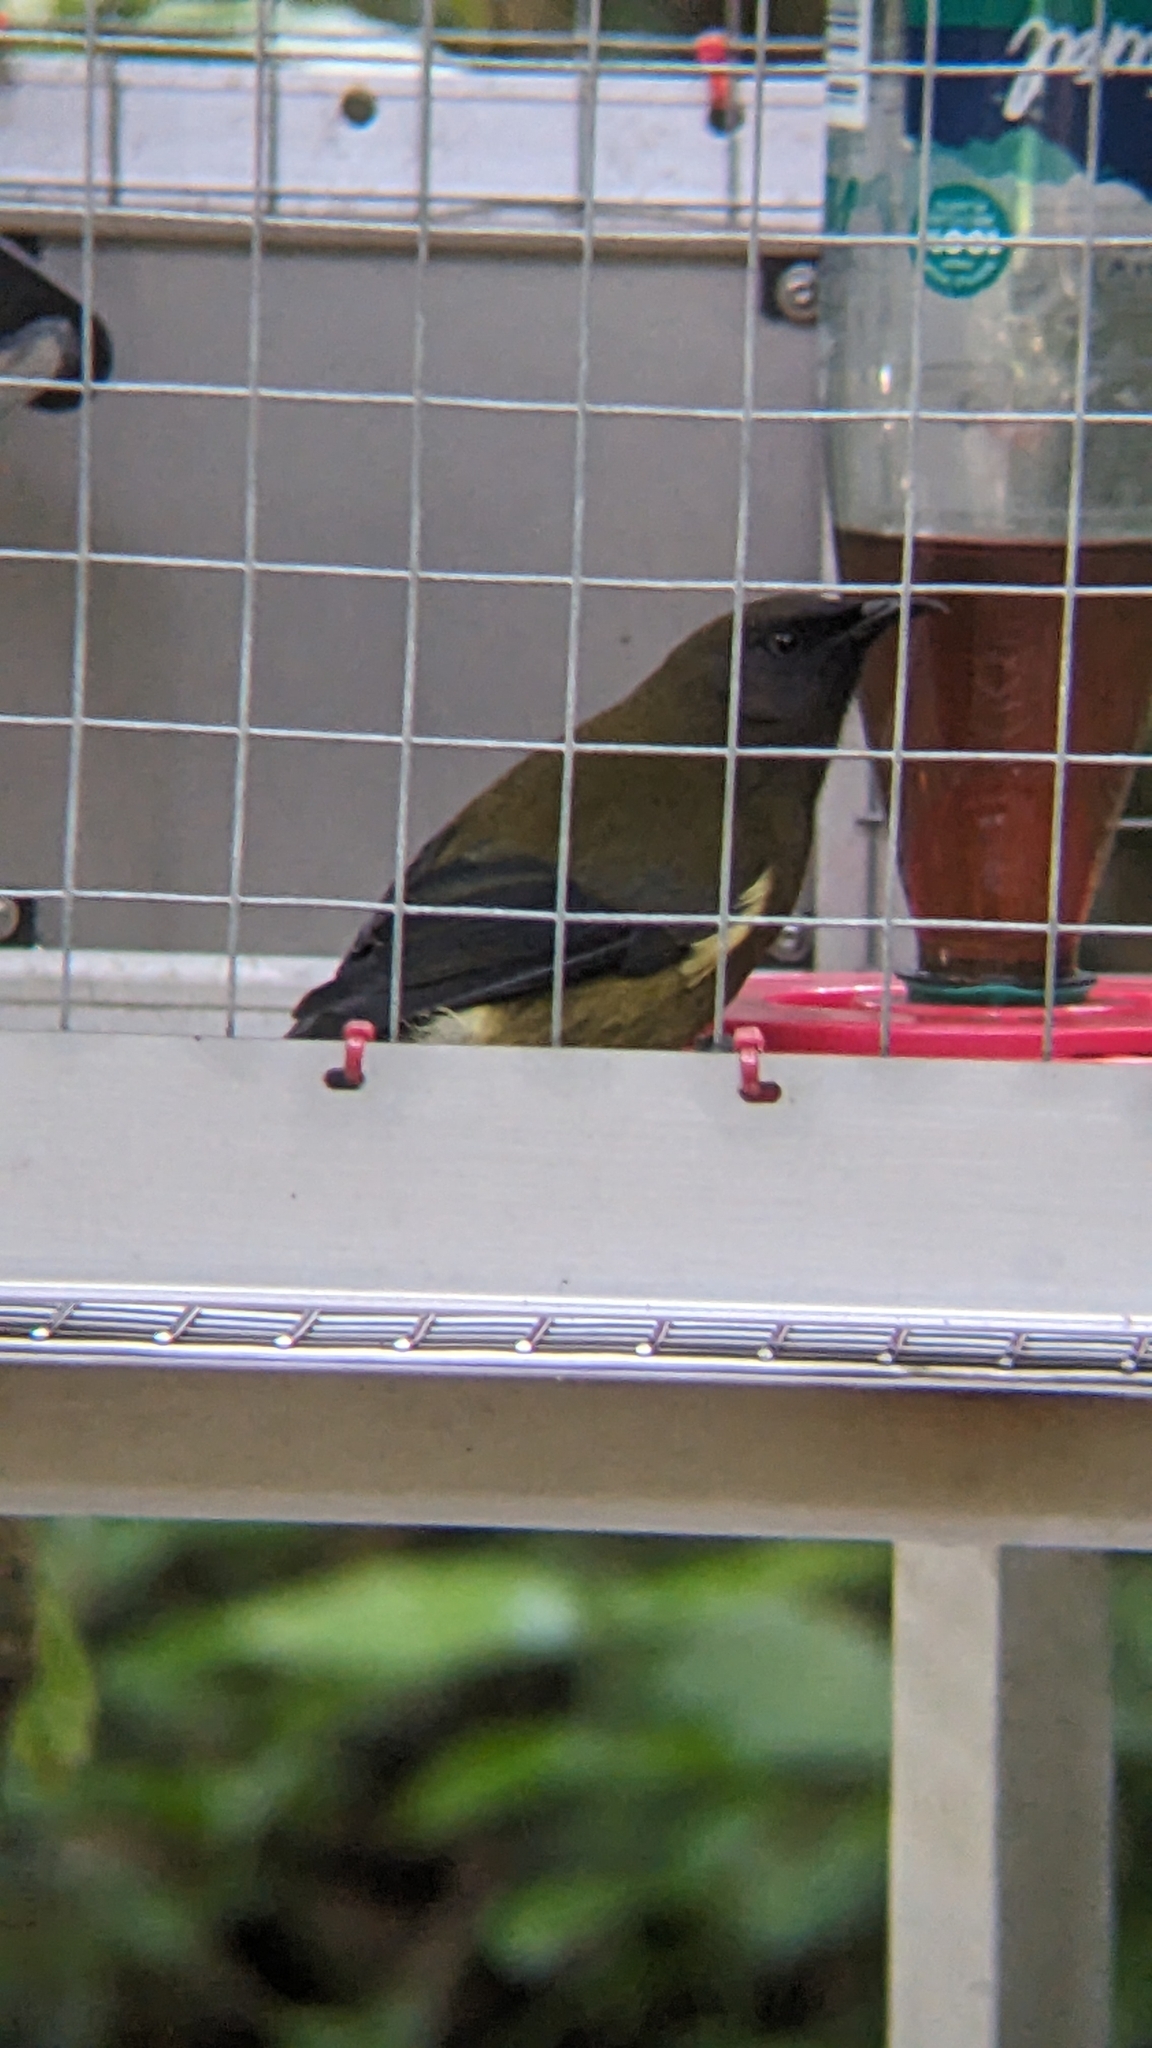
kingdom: Animalia
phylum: Chordata
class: Aves
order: Passeriformes
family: Meliphagidae
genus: Anthornis
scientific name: Anthornis melanura
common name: New zealand bellbird
